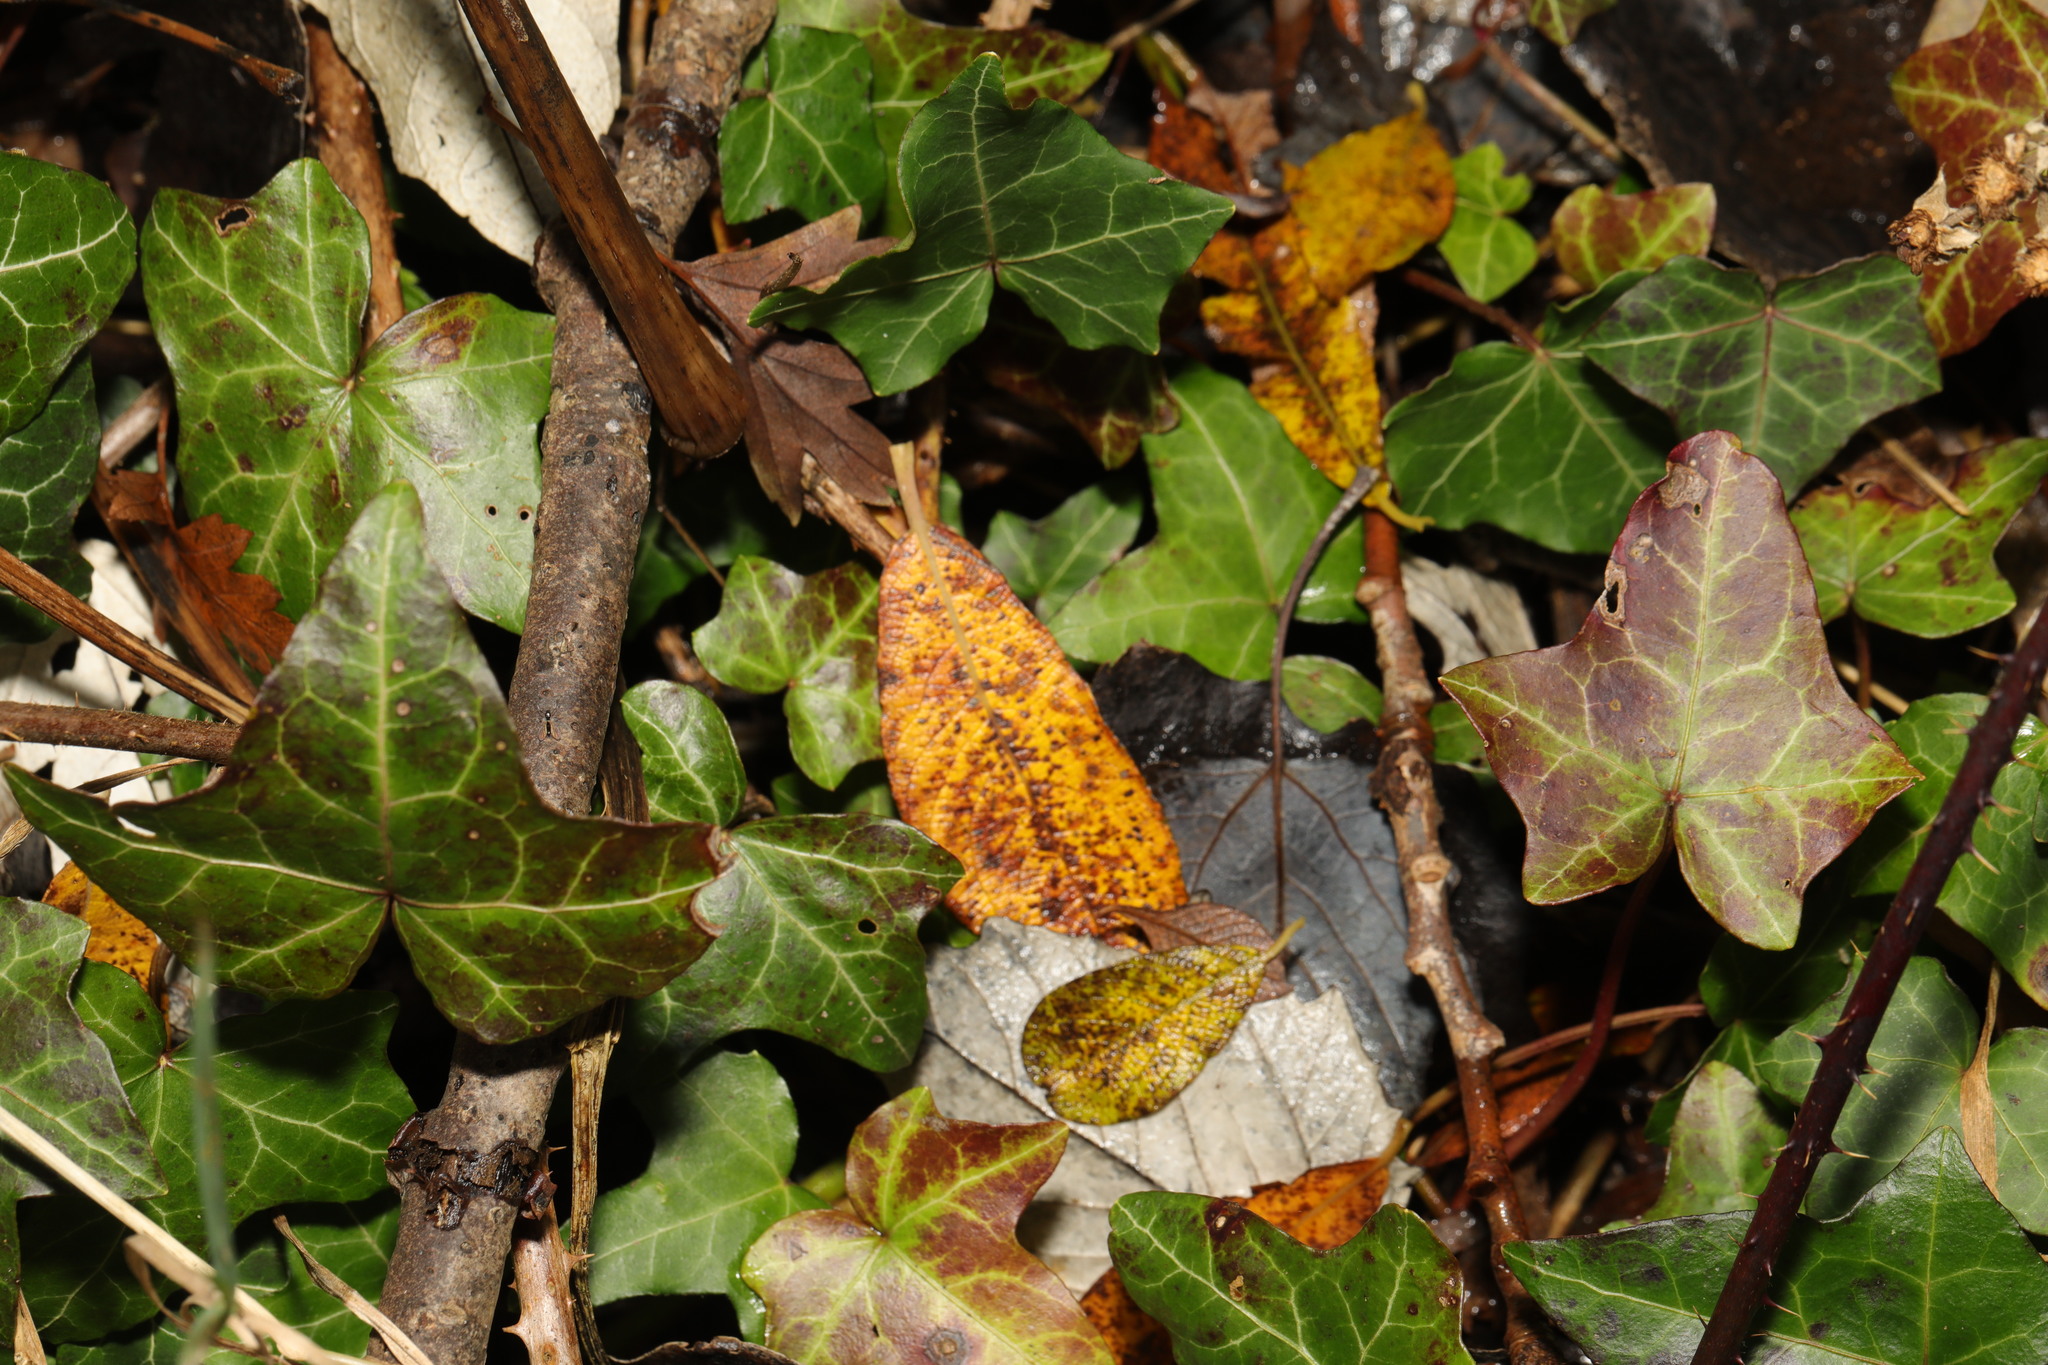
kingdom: Plantae
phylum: Tracheophyta
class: Magnoliopsida
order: Apiales
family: Araliaceae
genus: Hedera
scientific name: Hedera helix
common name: Ivy
